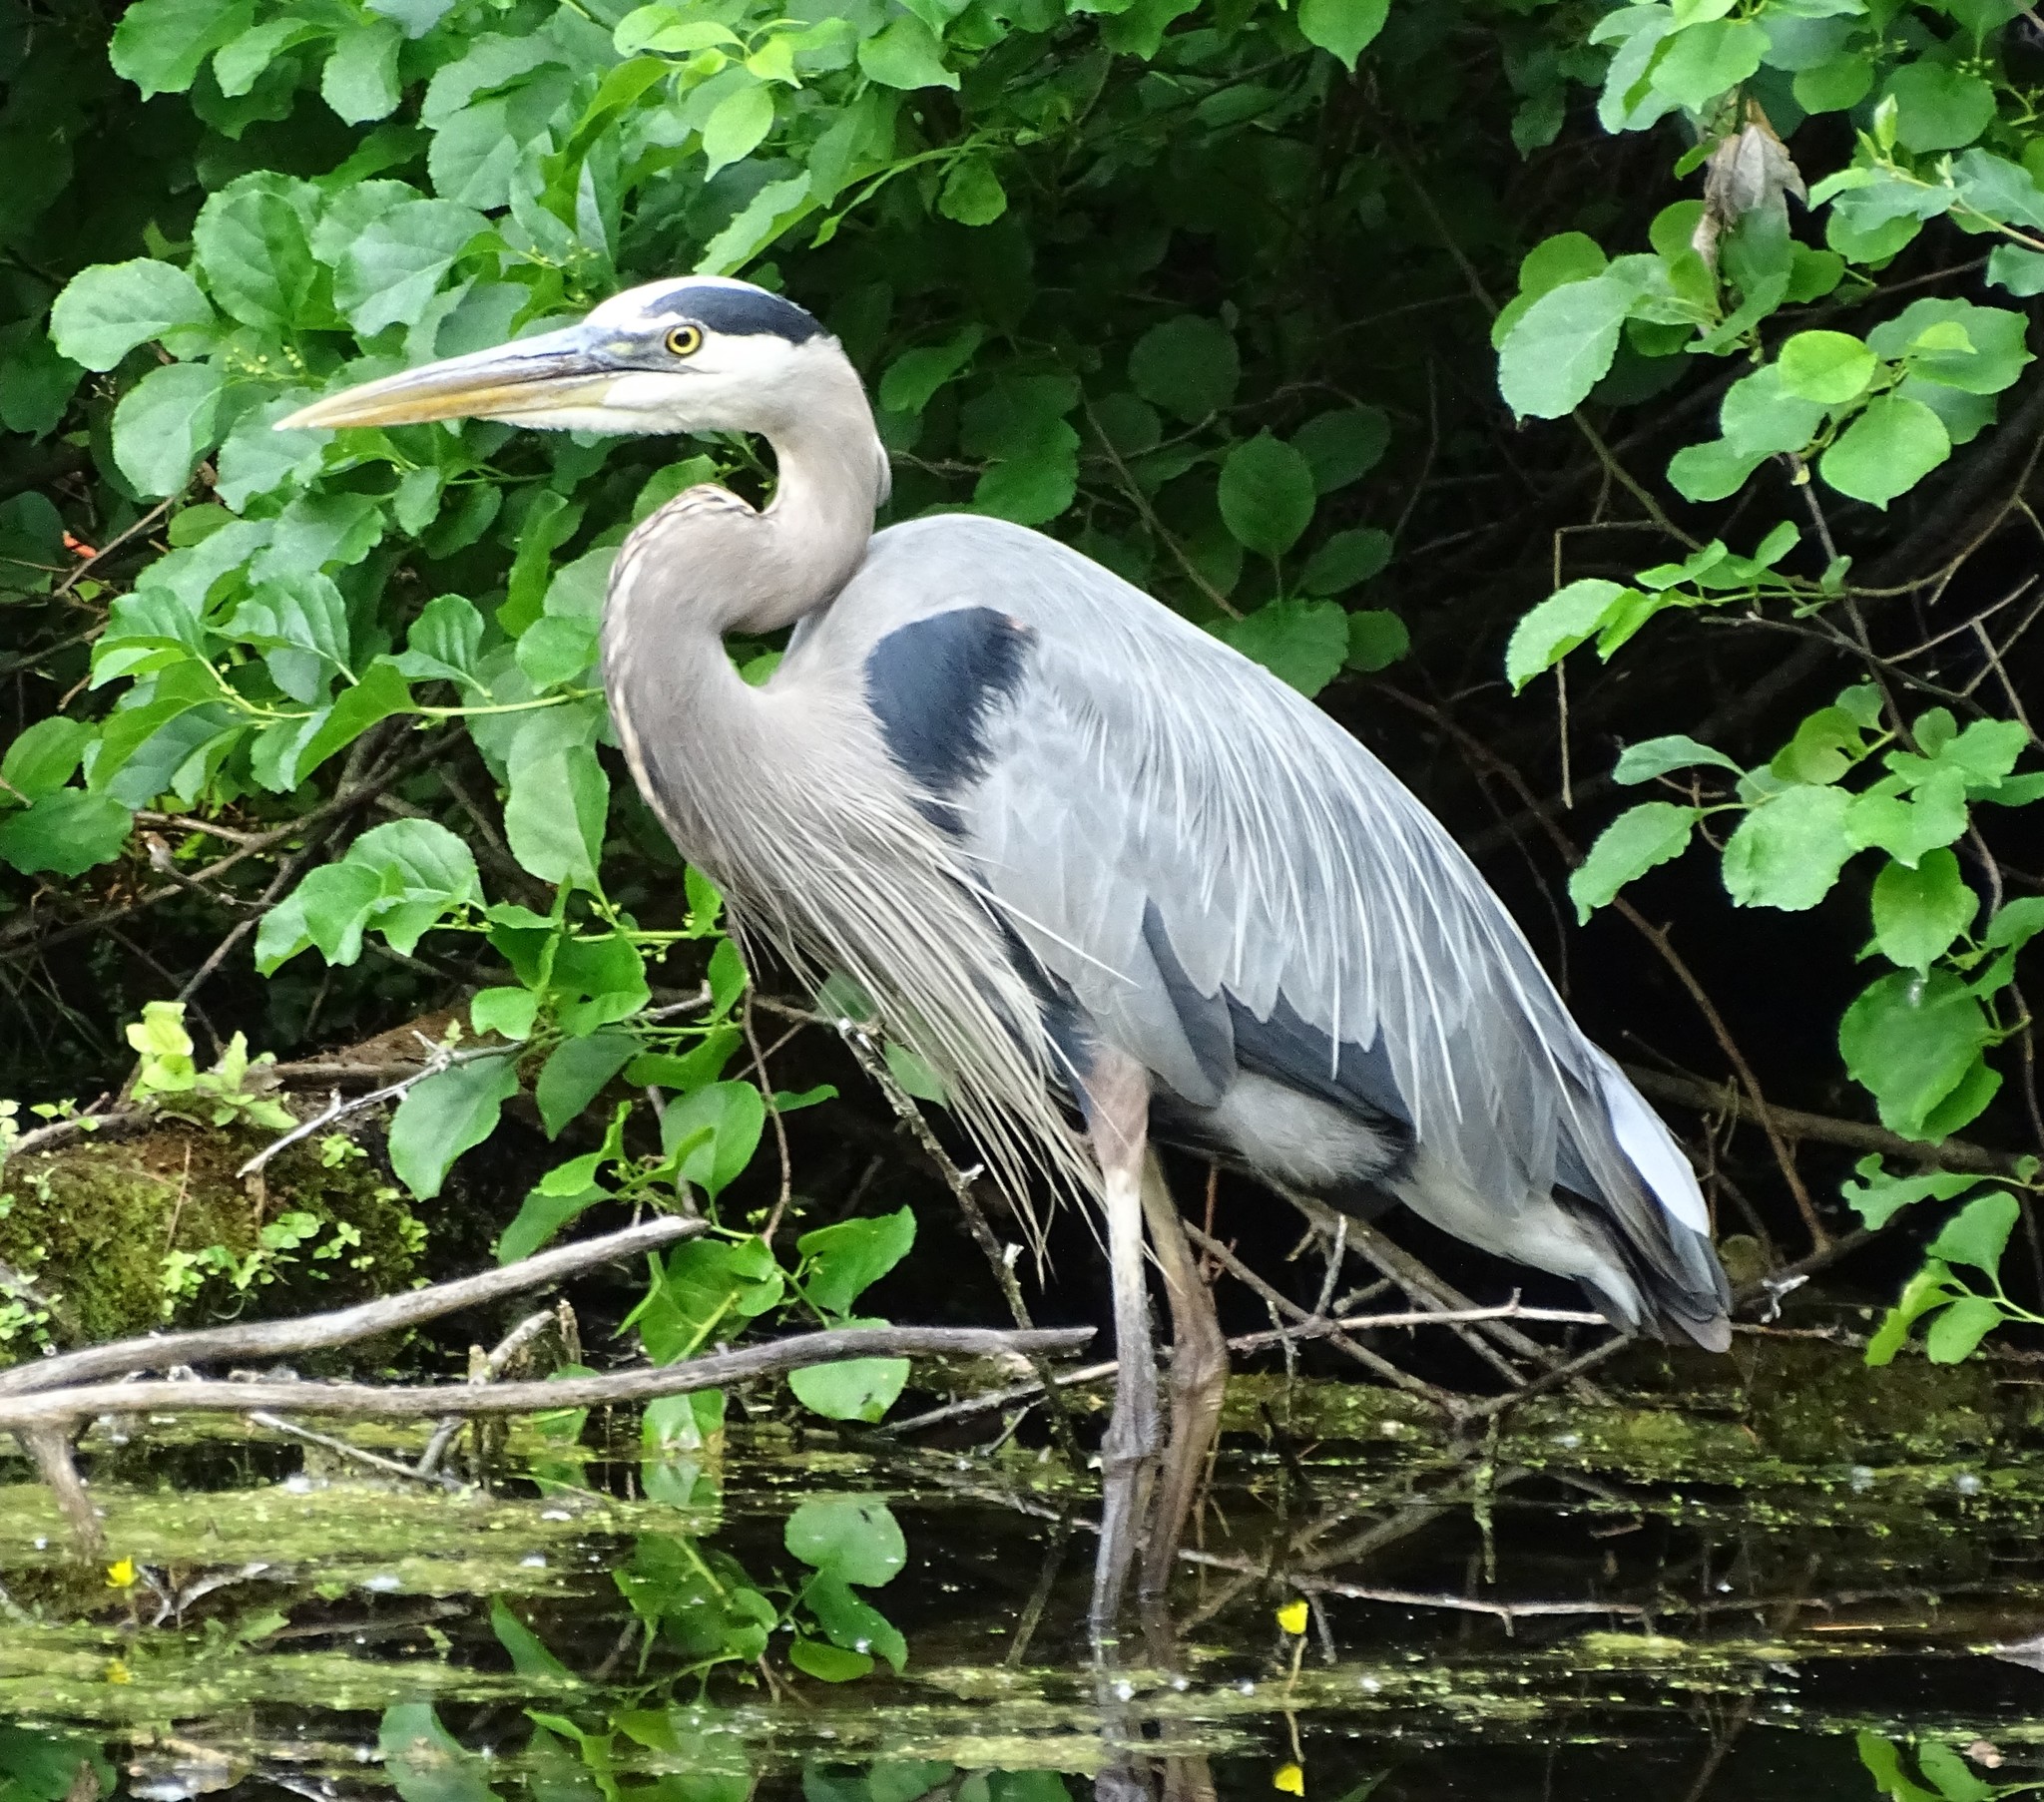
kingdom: Animalia
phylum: Chordata
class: Aves
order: Pelecaniformes
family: Ardeidae
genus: Ardea
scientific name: Ardea herodias
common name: Great blue heron
